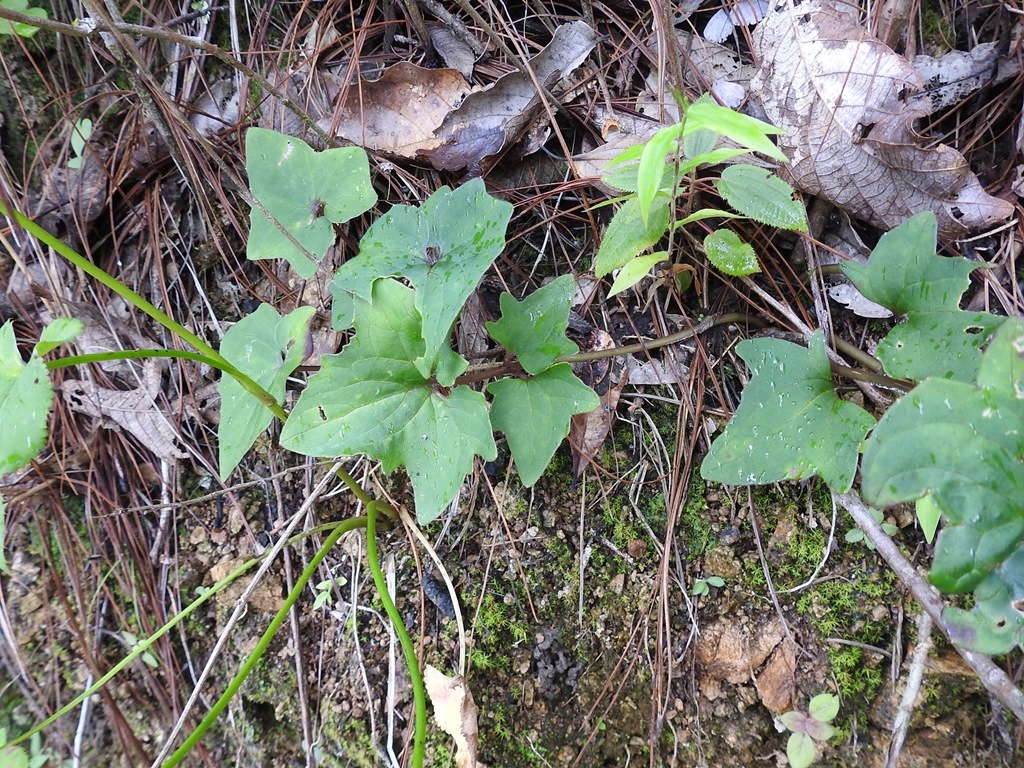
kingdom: Plantae
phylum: Tracheophyta
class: Magnoliopsida
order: Asterales
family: Asteraceae
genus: Mikania
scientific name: Mikania vitifolia
